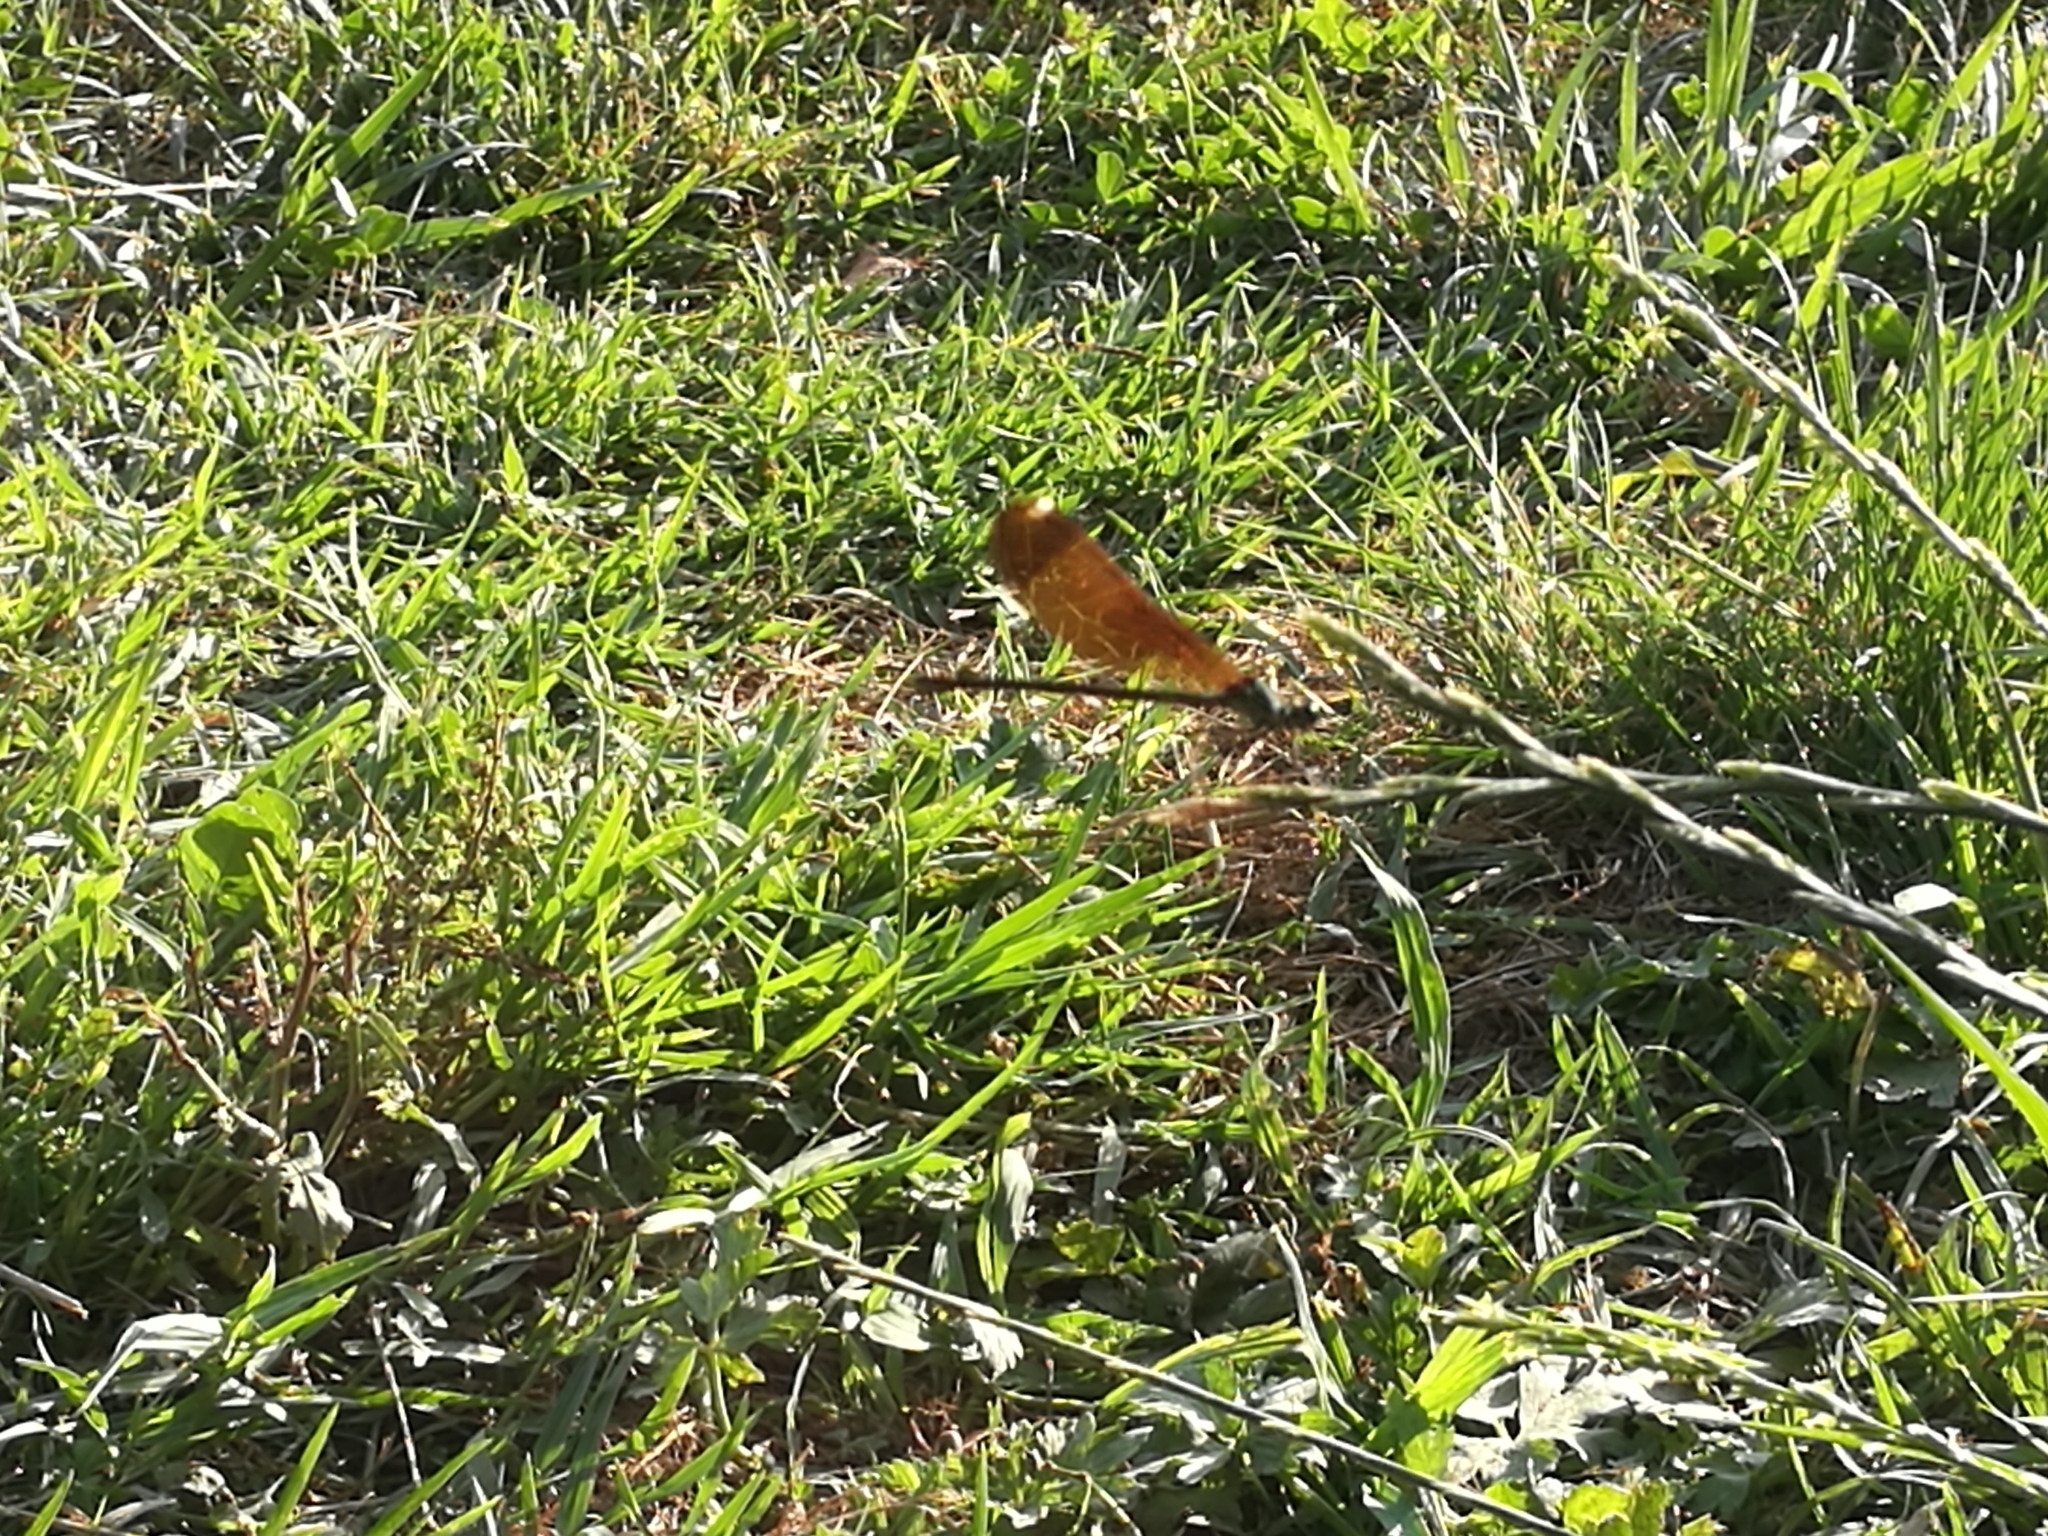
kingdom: Animalia
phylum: Arthropoda
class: Insecta
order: Odonata
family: Calopterygidae
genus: Calopteryx
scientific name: Calopteryx haemorrhoidalis
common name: Copper demoiselle
